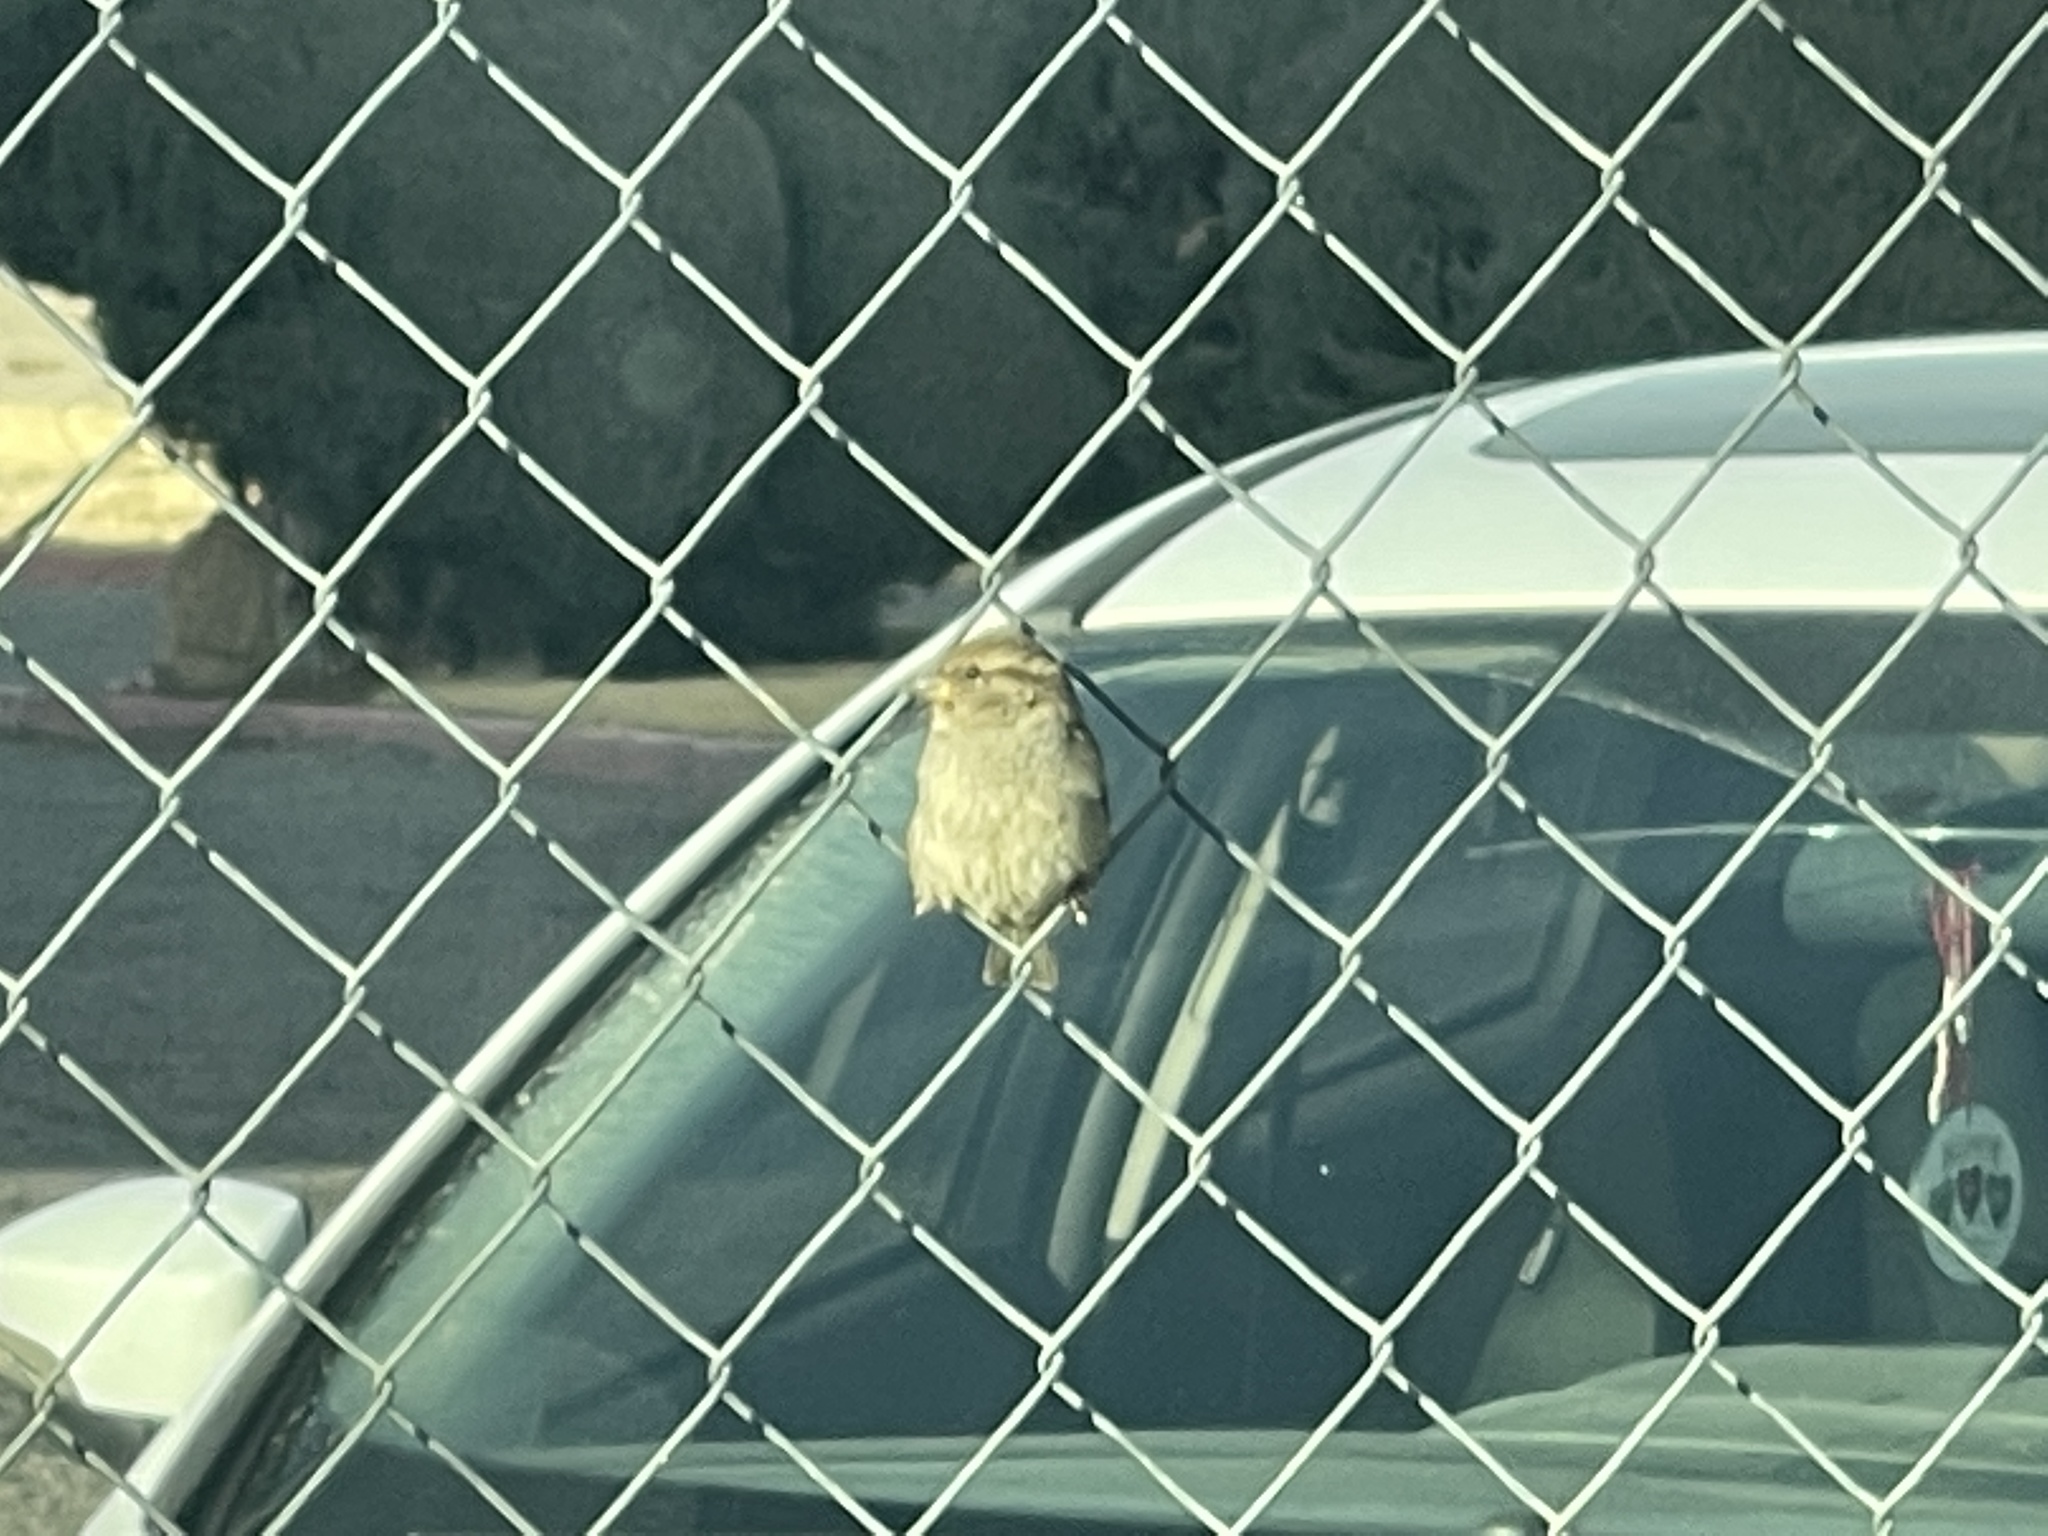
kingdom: Animalia
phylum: Chordata
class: Aves
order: Passeriformes
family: Passeridae
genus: Passer
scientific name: Passer domesticus
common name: House sparrow
